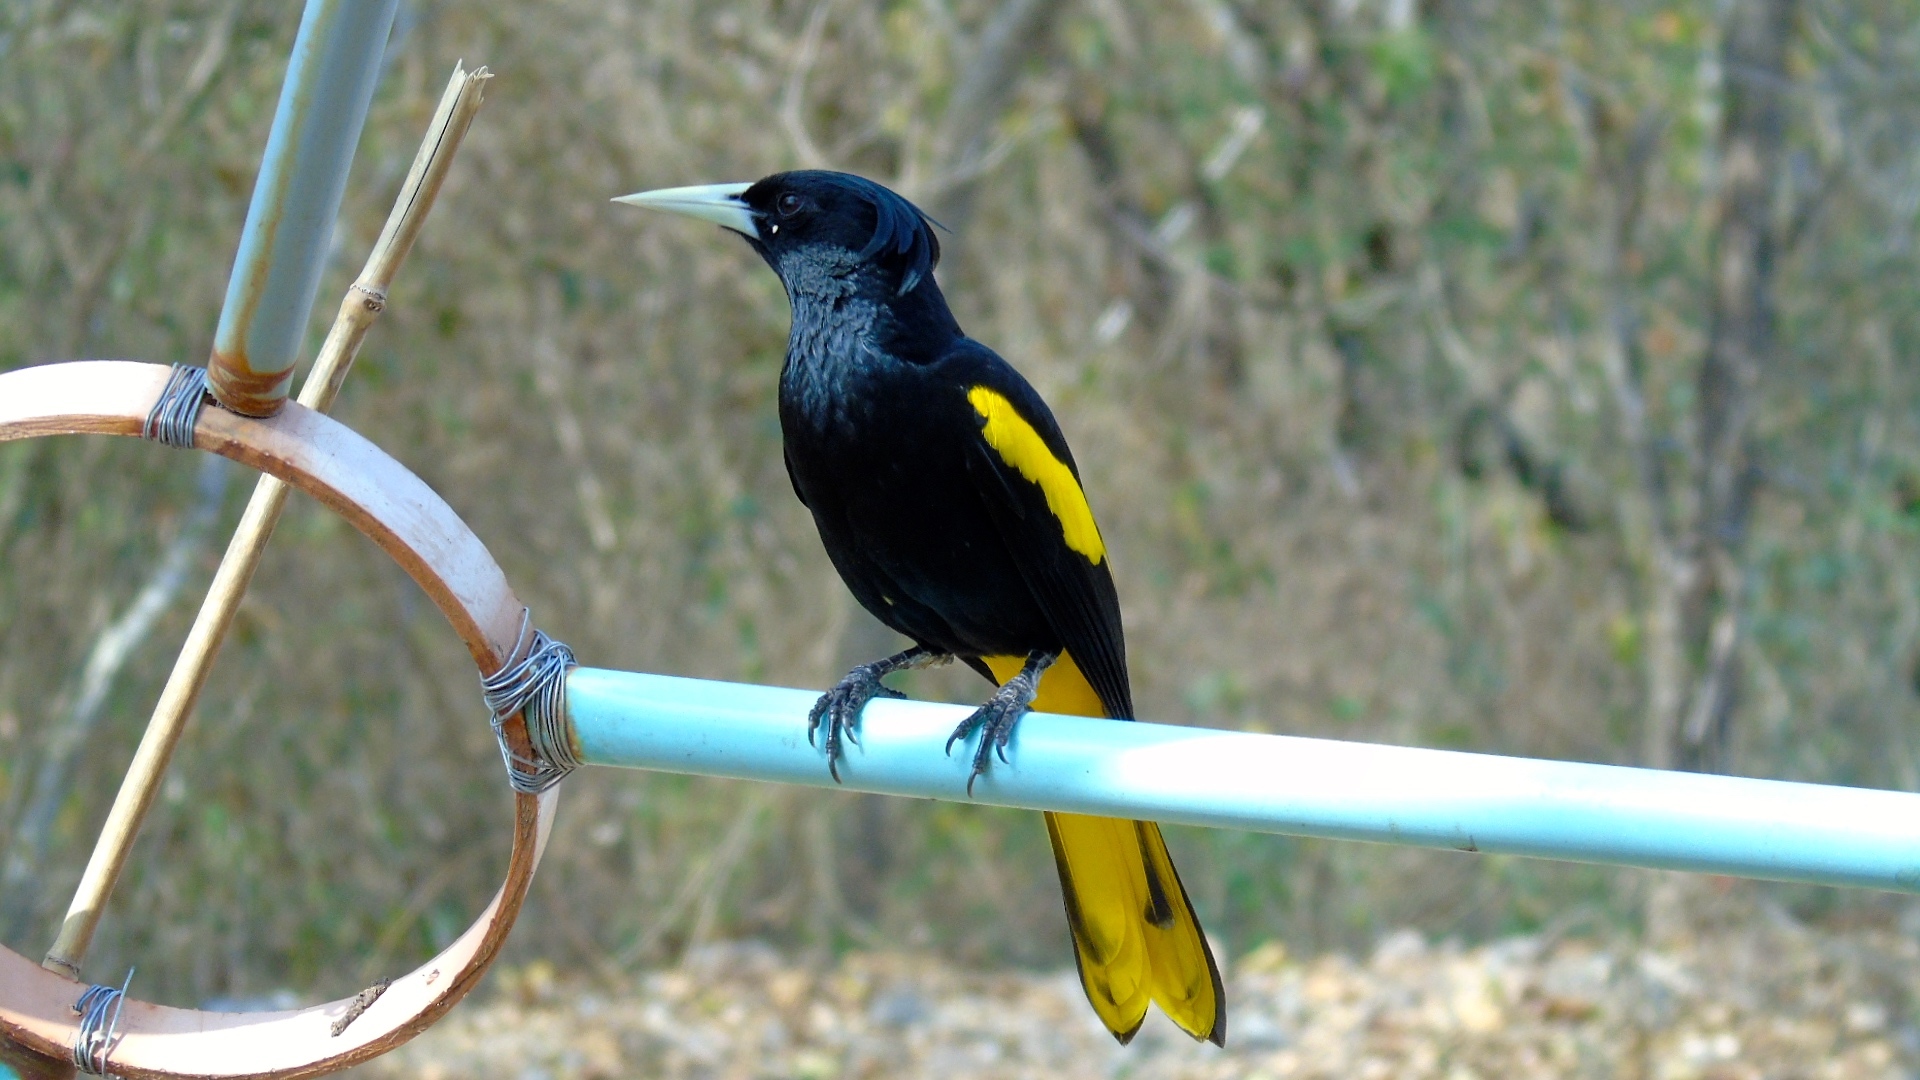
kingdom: Animalia
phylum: Chordata
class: Aves
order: Passeriformes
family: Icteridae
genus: Cacicus
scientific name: Cacicus melanicterus
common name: Yellow-winged cacique
